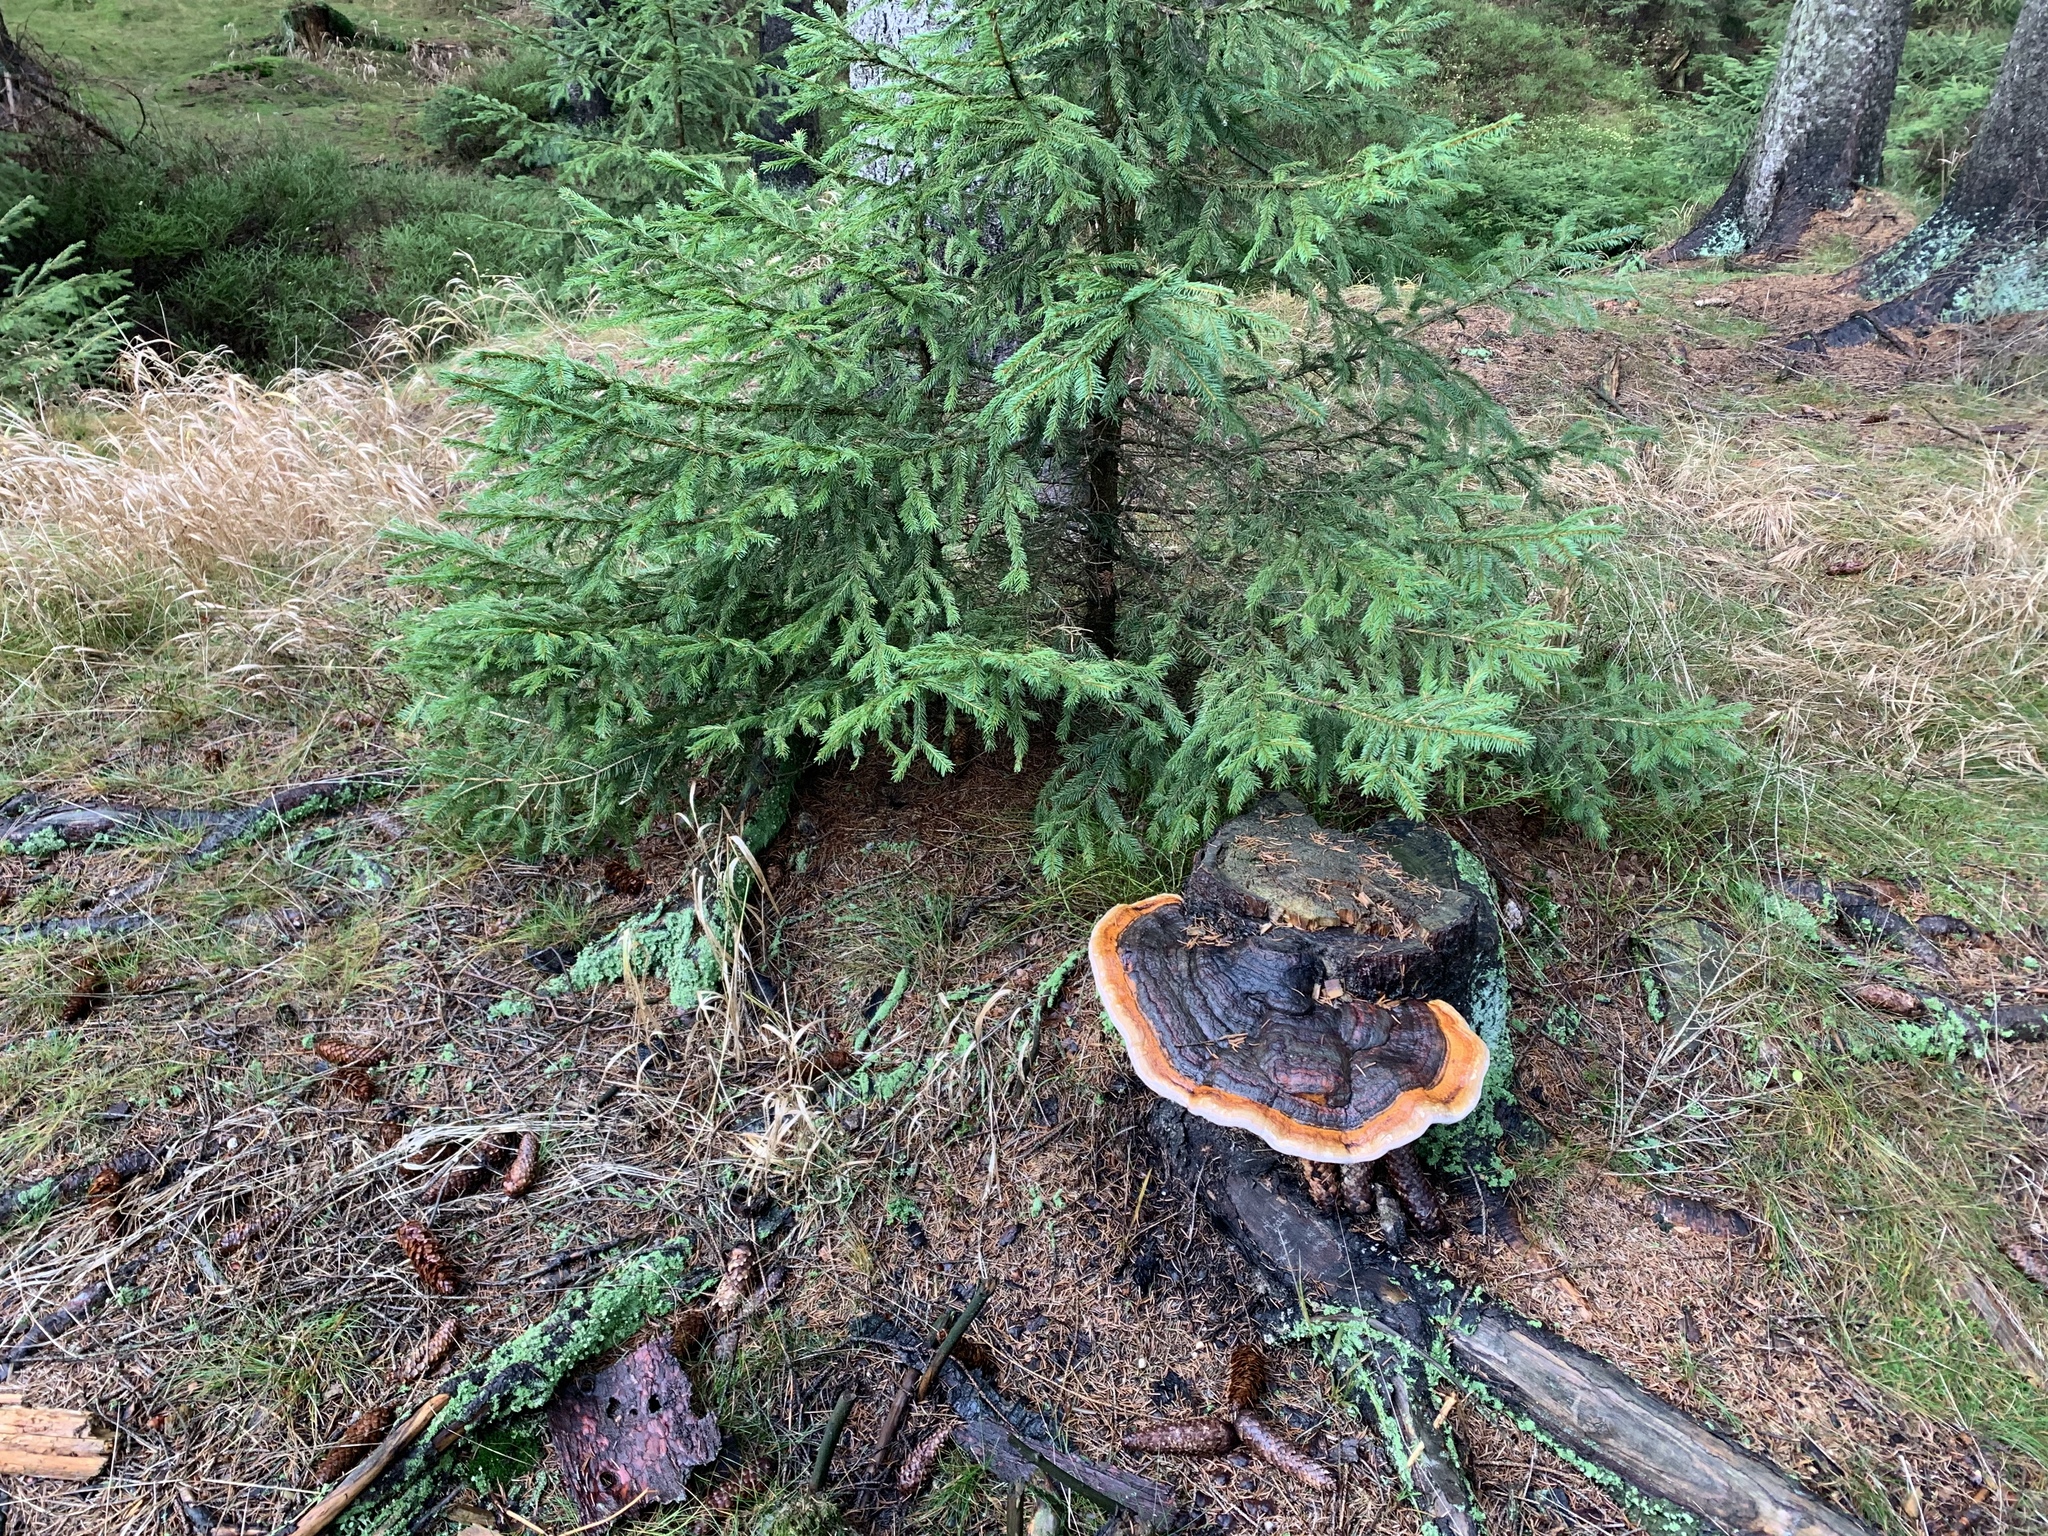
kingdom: Fungi
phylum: Basidiomycota
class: Agaricomycetes
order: Polyporales
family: Fomitopsidaceae
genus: Fomitopsis
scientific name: Fomitopsis pinicola
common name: Red-belted bracket
